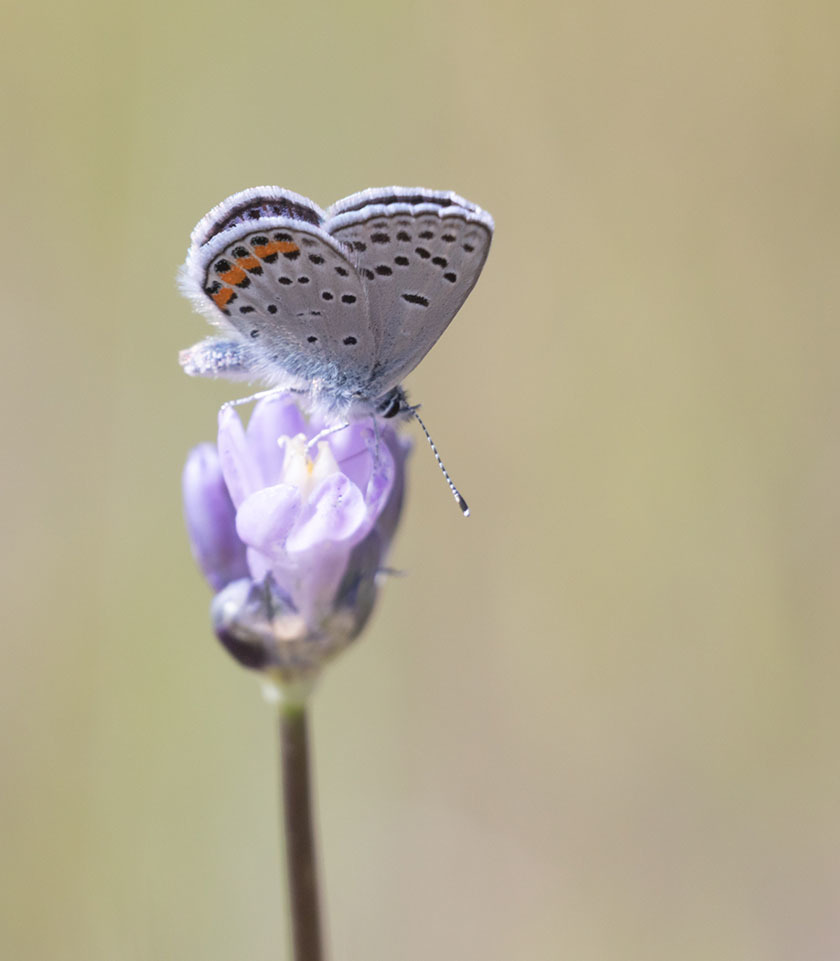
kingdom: Animalia
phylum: Arthropoda
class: Insecta
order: Lepidoptera
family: Lycaenidae
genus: Icaricia
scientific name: Icaricia acmon
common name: Acmon blue
